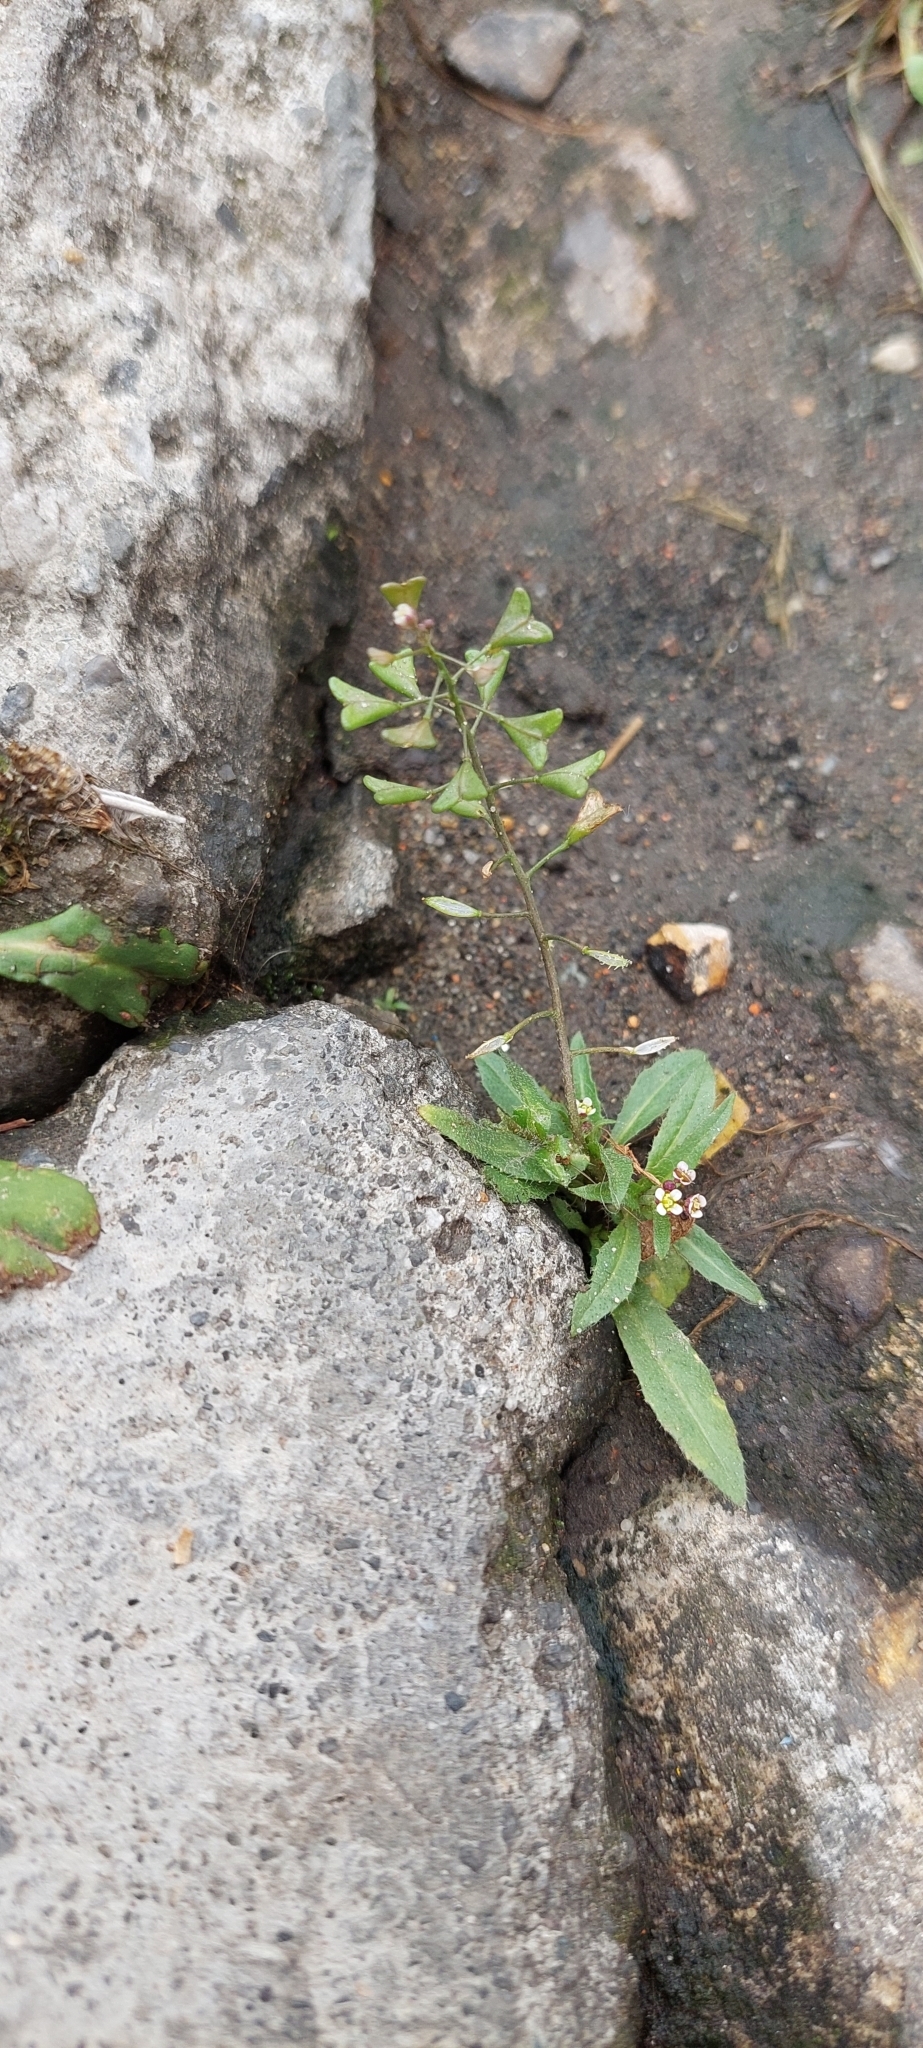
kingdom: Plantae
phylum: Tracheophyta
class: Magnoliopsida
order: Brassicales
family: Brassicaceae
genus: Capsella
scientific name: Capsella bursa-pastoris
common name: Shepherd's purse
